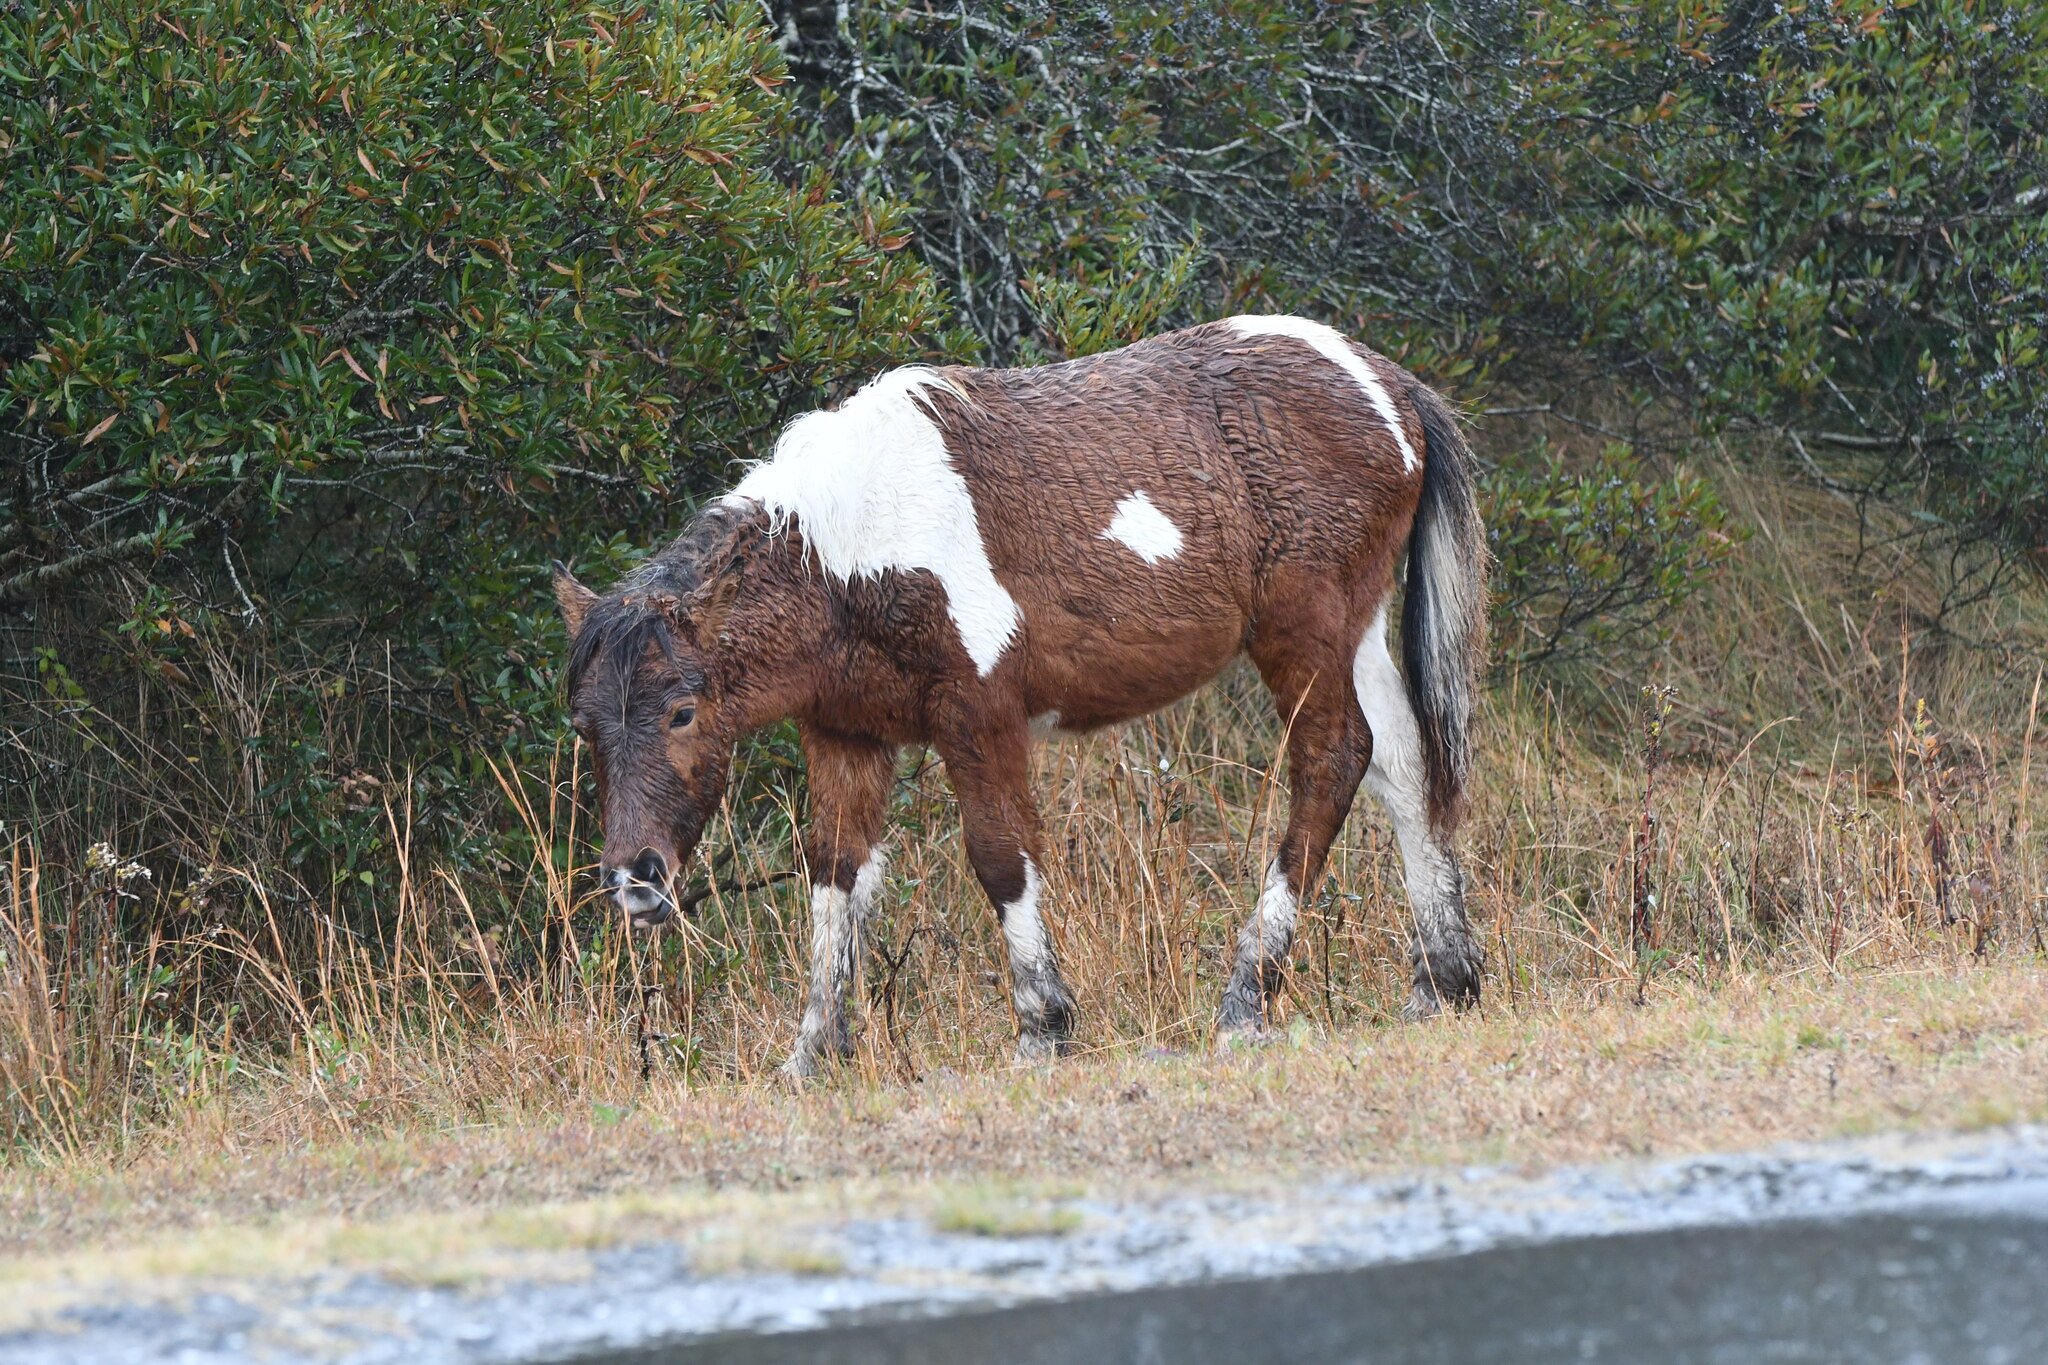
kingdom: Animalia
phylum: Chordata
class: Mammalia
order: Perissodactyla
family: Equidae
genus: Equus
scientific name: Equus caballus
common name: Horse
